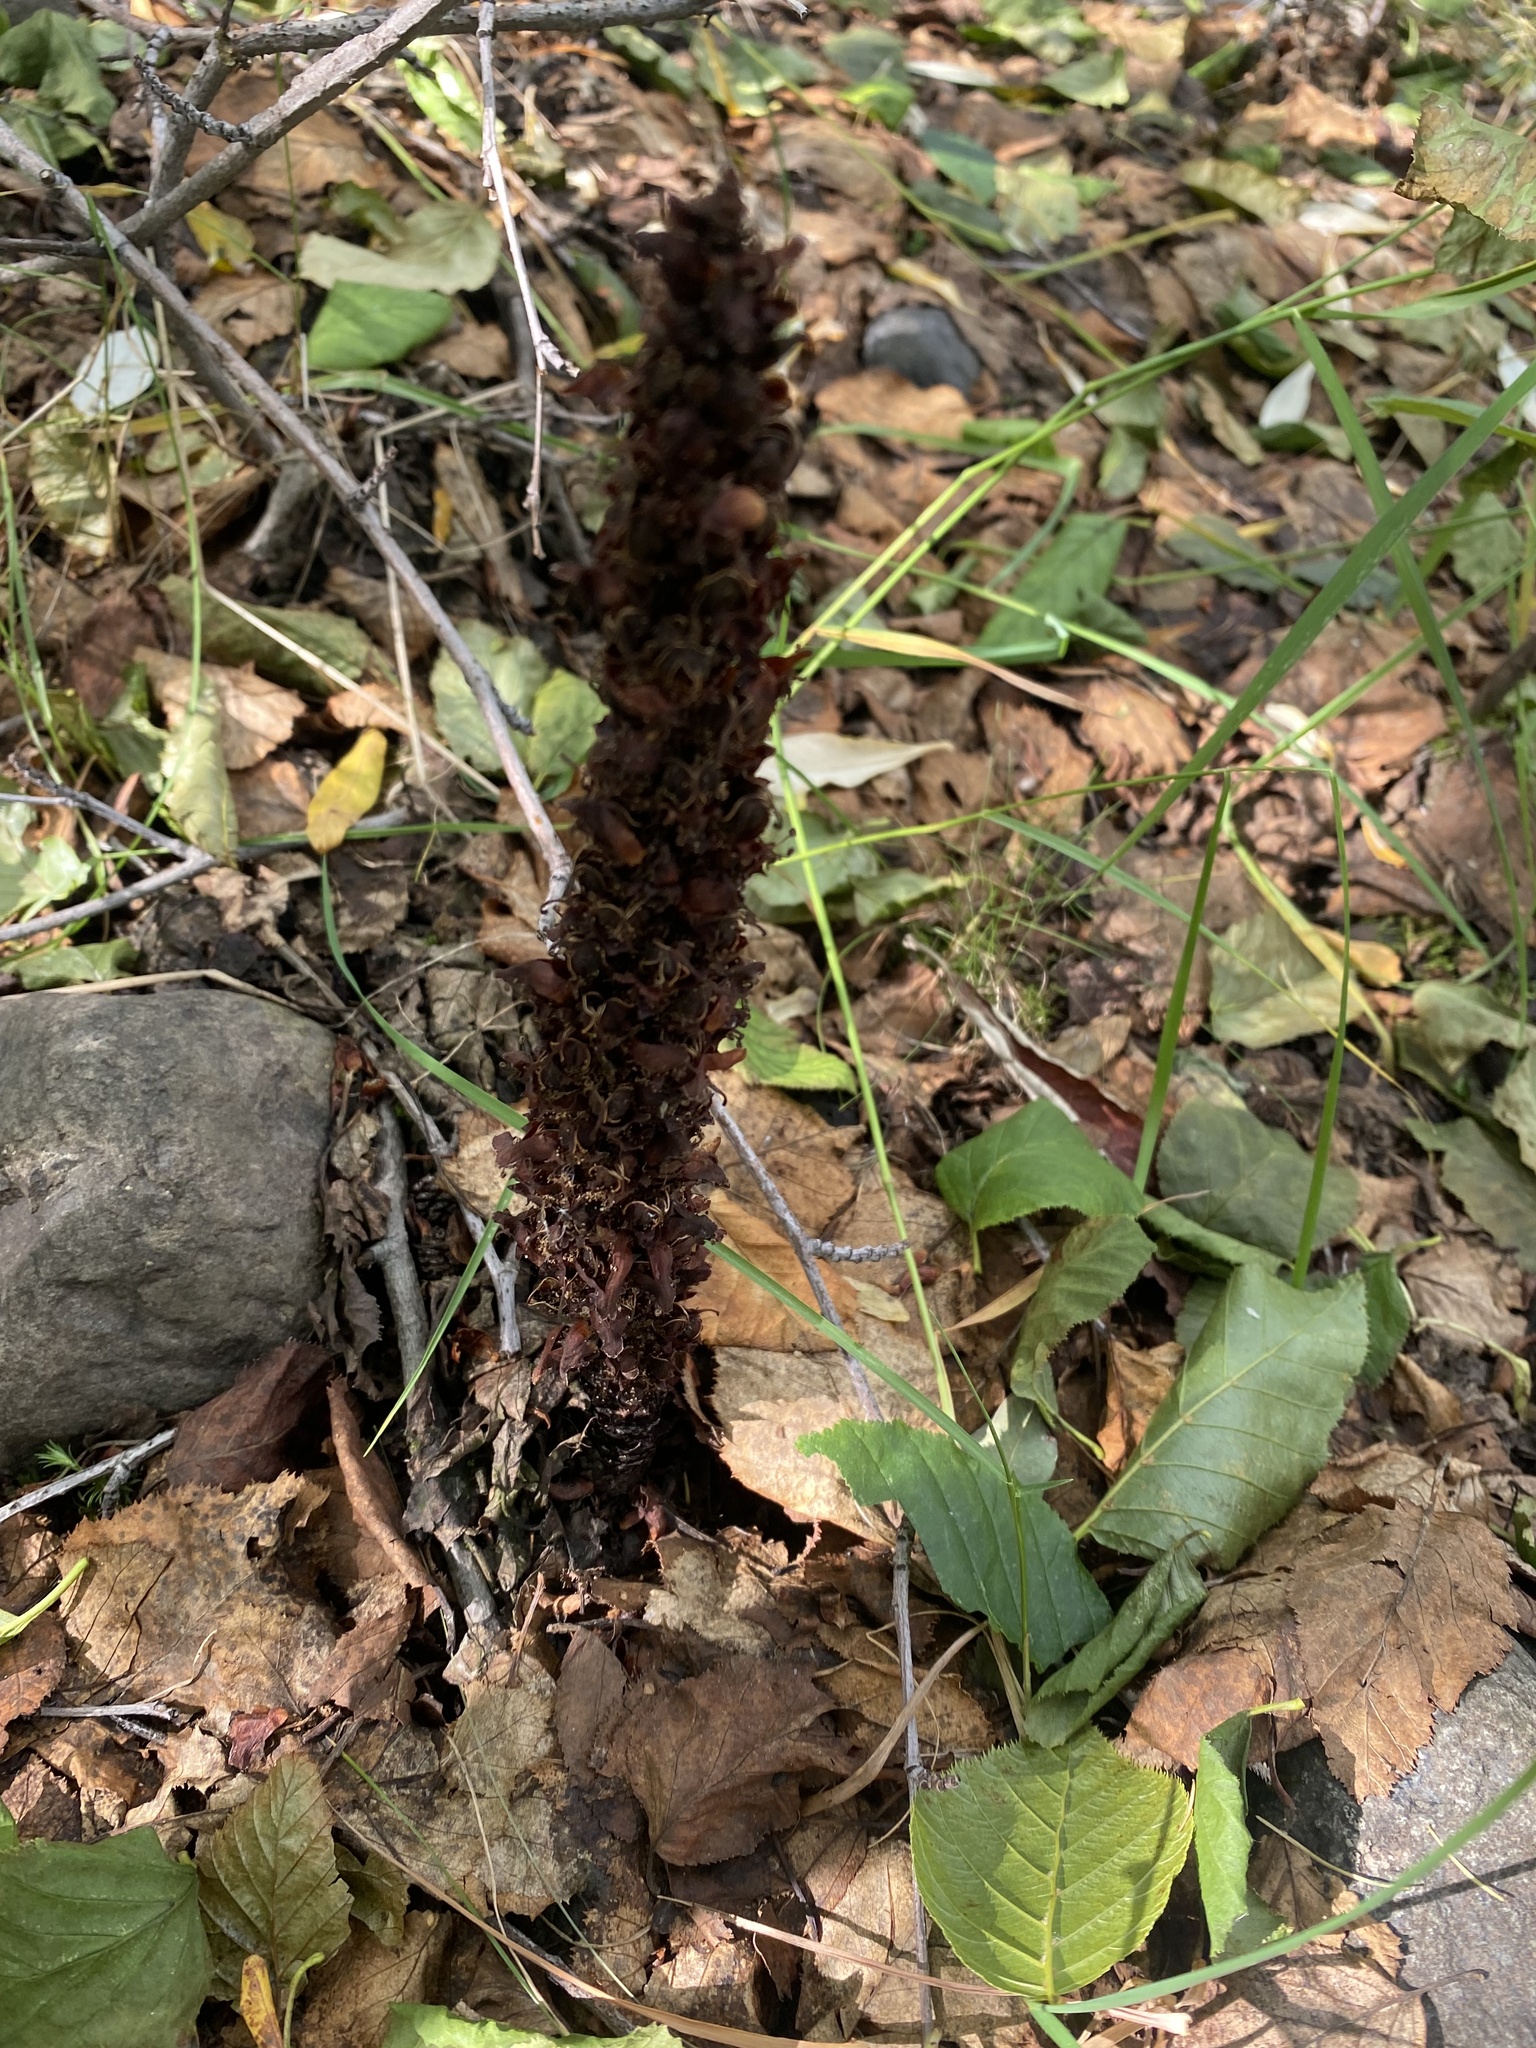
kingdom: Plantae
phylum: Tracheophyta
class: Magnoliopsida
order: Lamiales
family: Orobanchaceae
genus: Boschniakia
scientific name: Boschniakia rossica
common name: Poque
